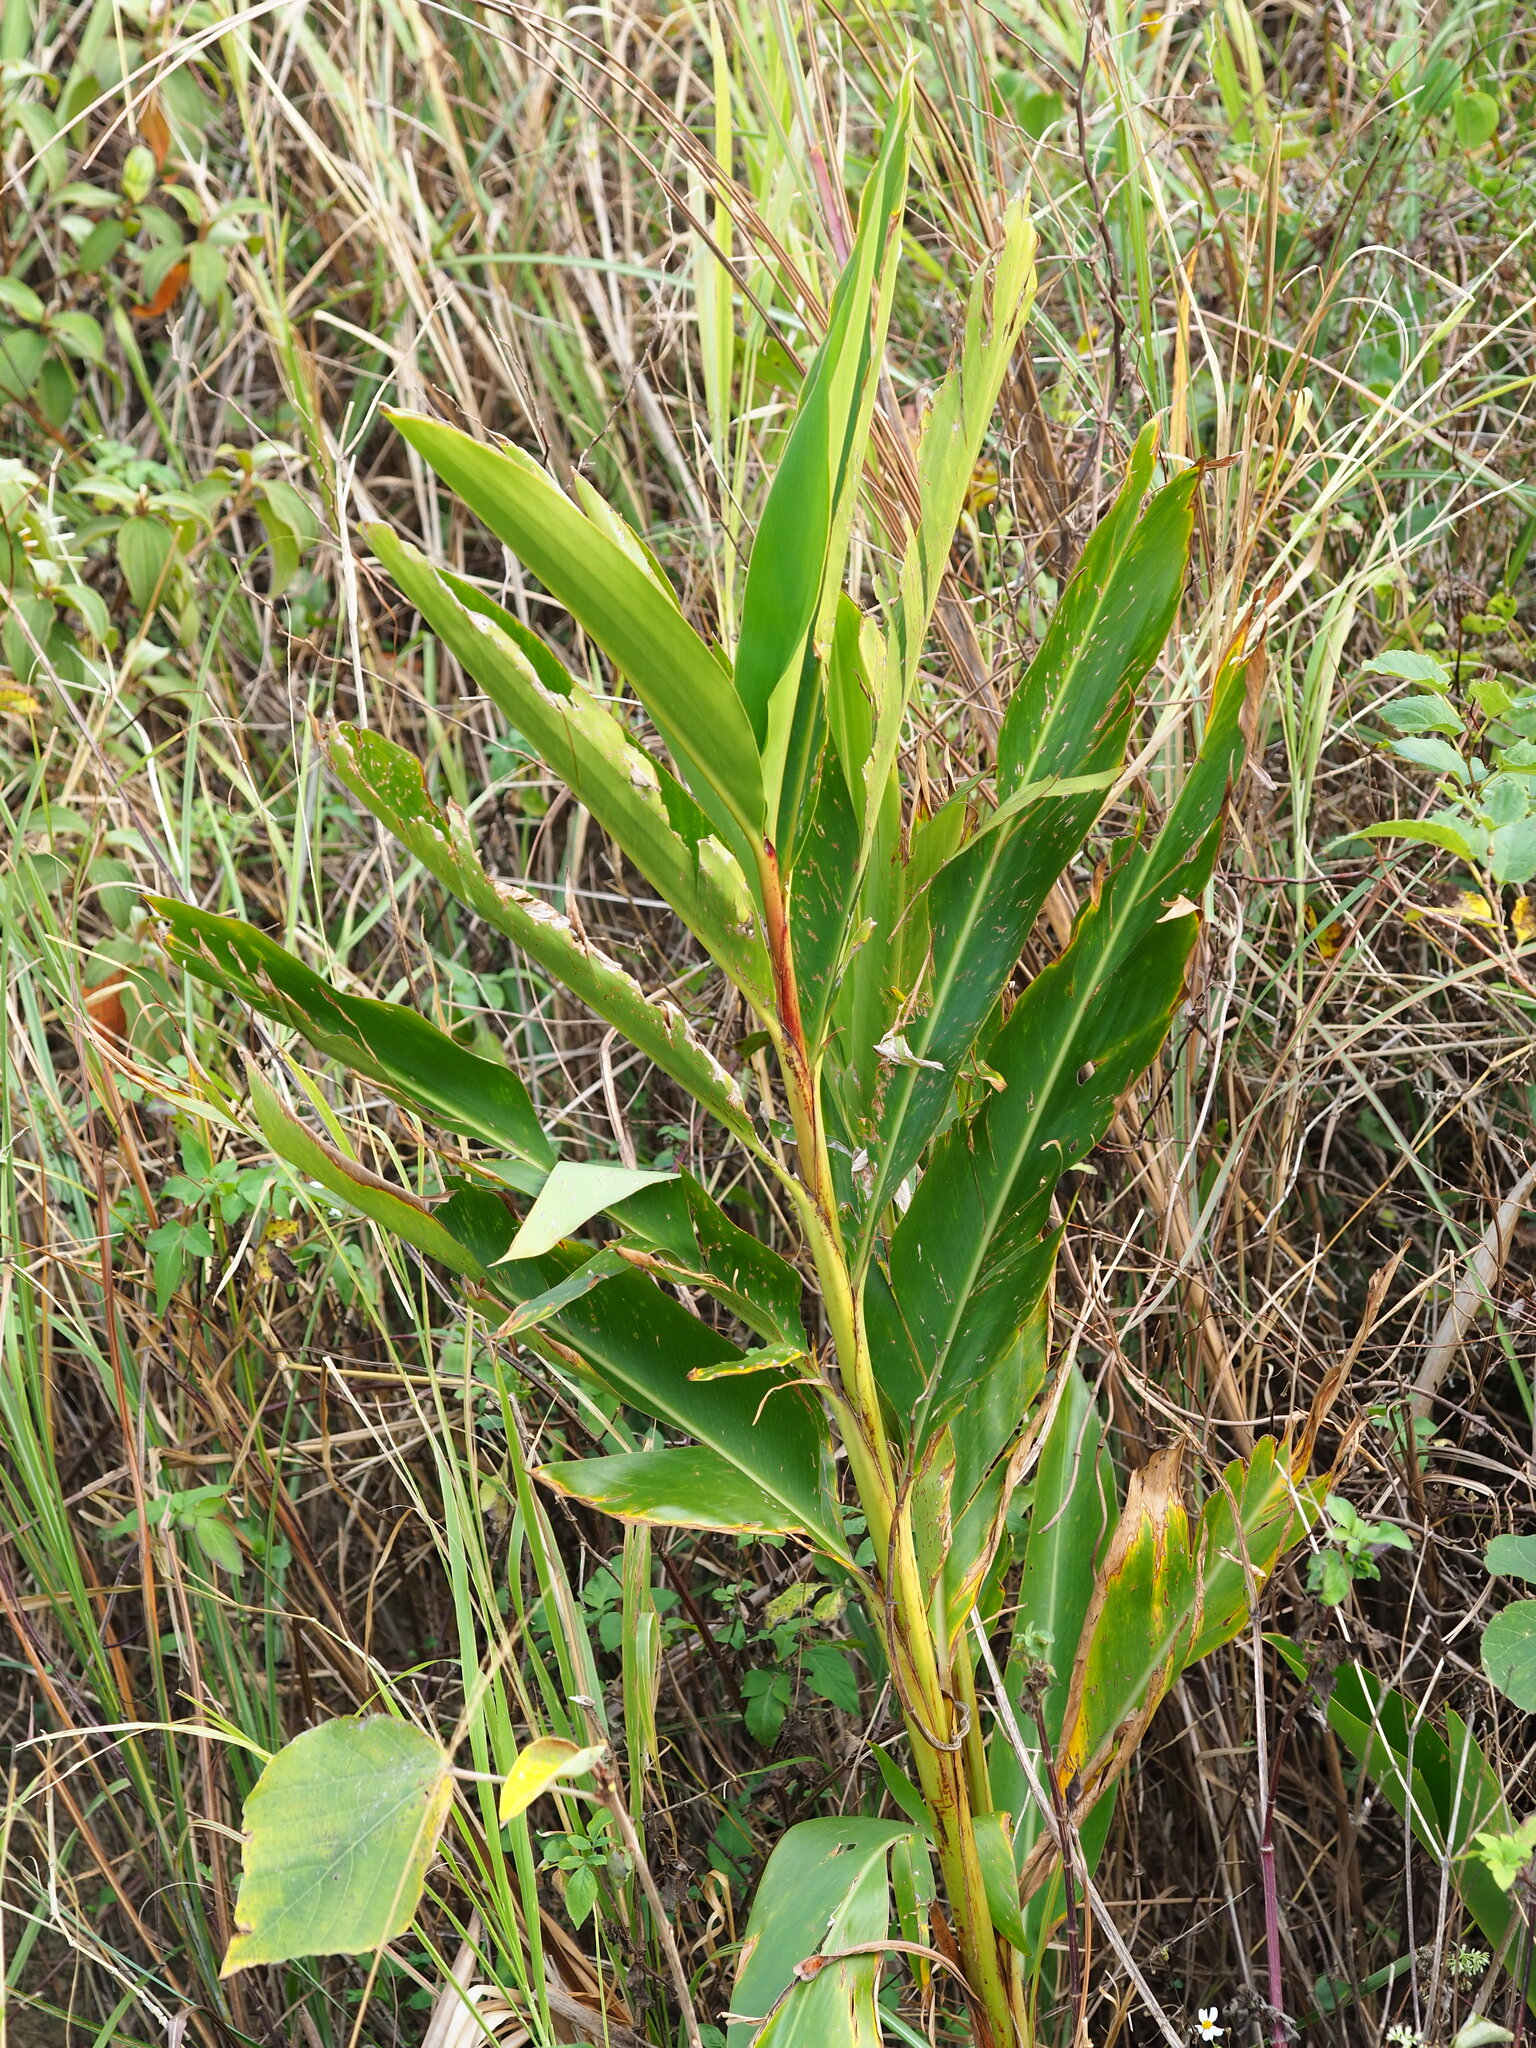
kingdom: Plantae
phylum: Tracheophyta
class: Liliopsida
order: Zingiberales
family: Zingiberaceae
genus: Alpinia
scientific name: Alpinia zerumbet
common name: Shellplant
